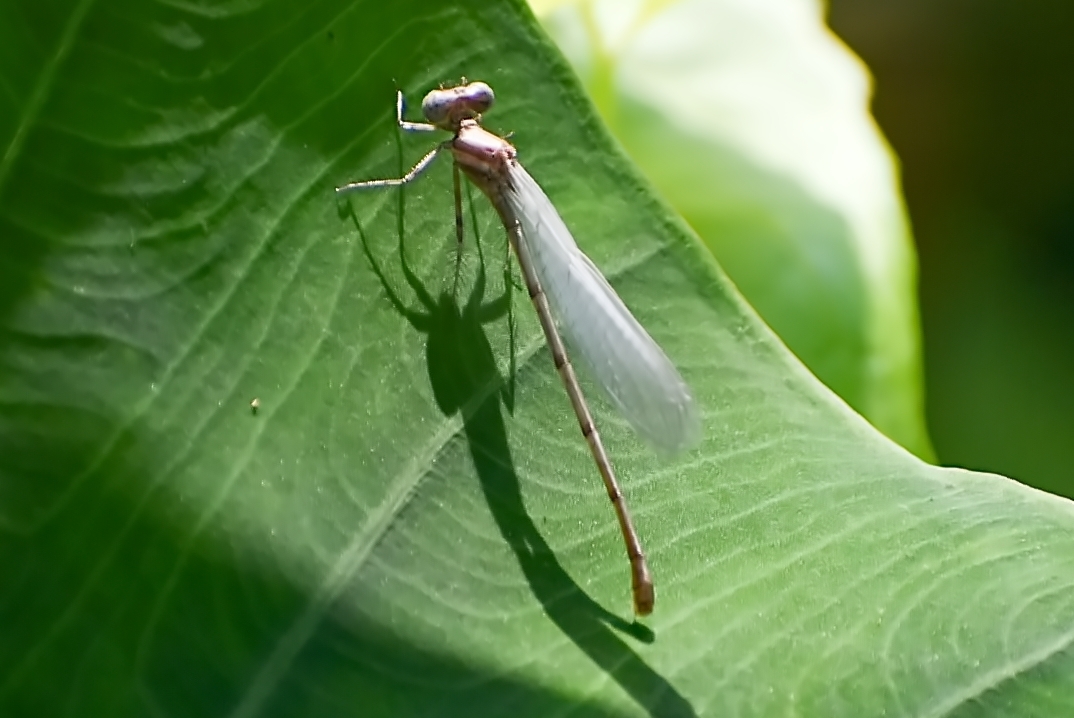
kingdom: Animalia
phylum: Arthropoda
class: Insecta
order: Odonata
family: Platycnemididae
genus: Onychargia
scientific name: Onychargia atrocyana
